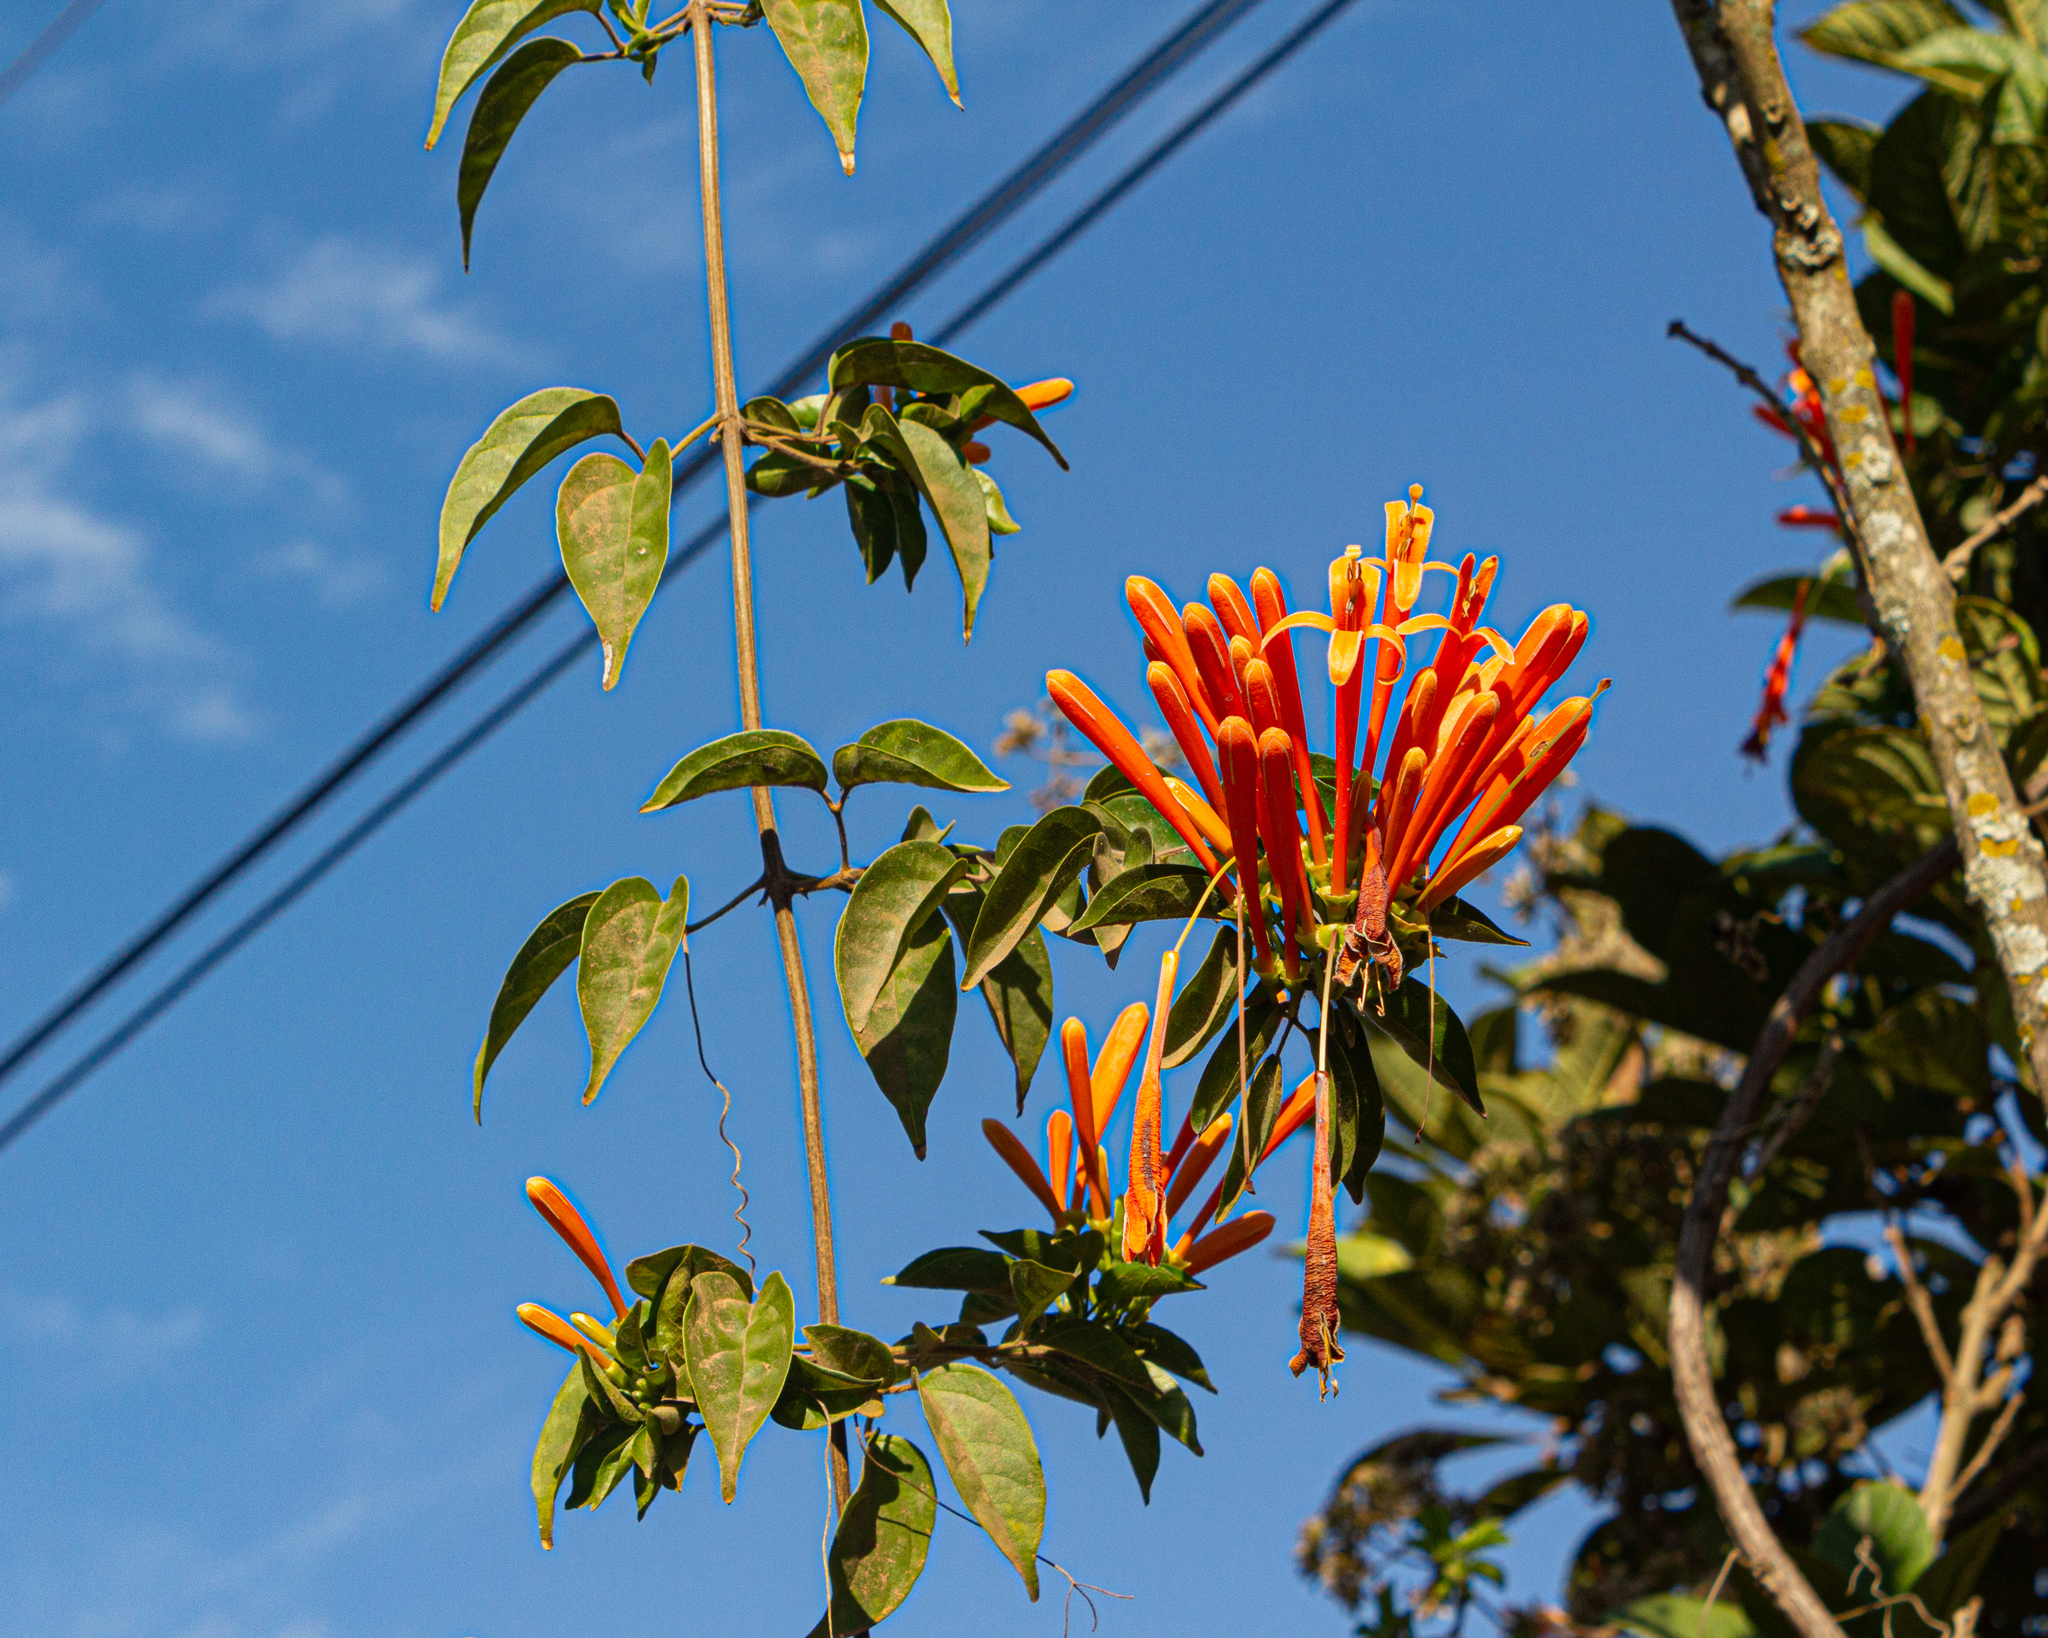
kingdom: Plantae
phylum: Tracheophyta
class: Magnoliopsida
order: Lamiales
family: Bignoniaceae
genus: Pyrostegia
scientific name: Pyrostegia venusta
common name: Flamevine
